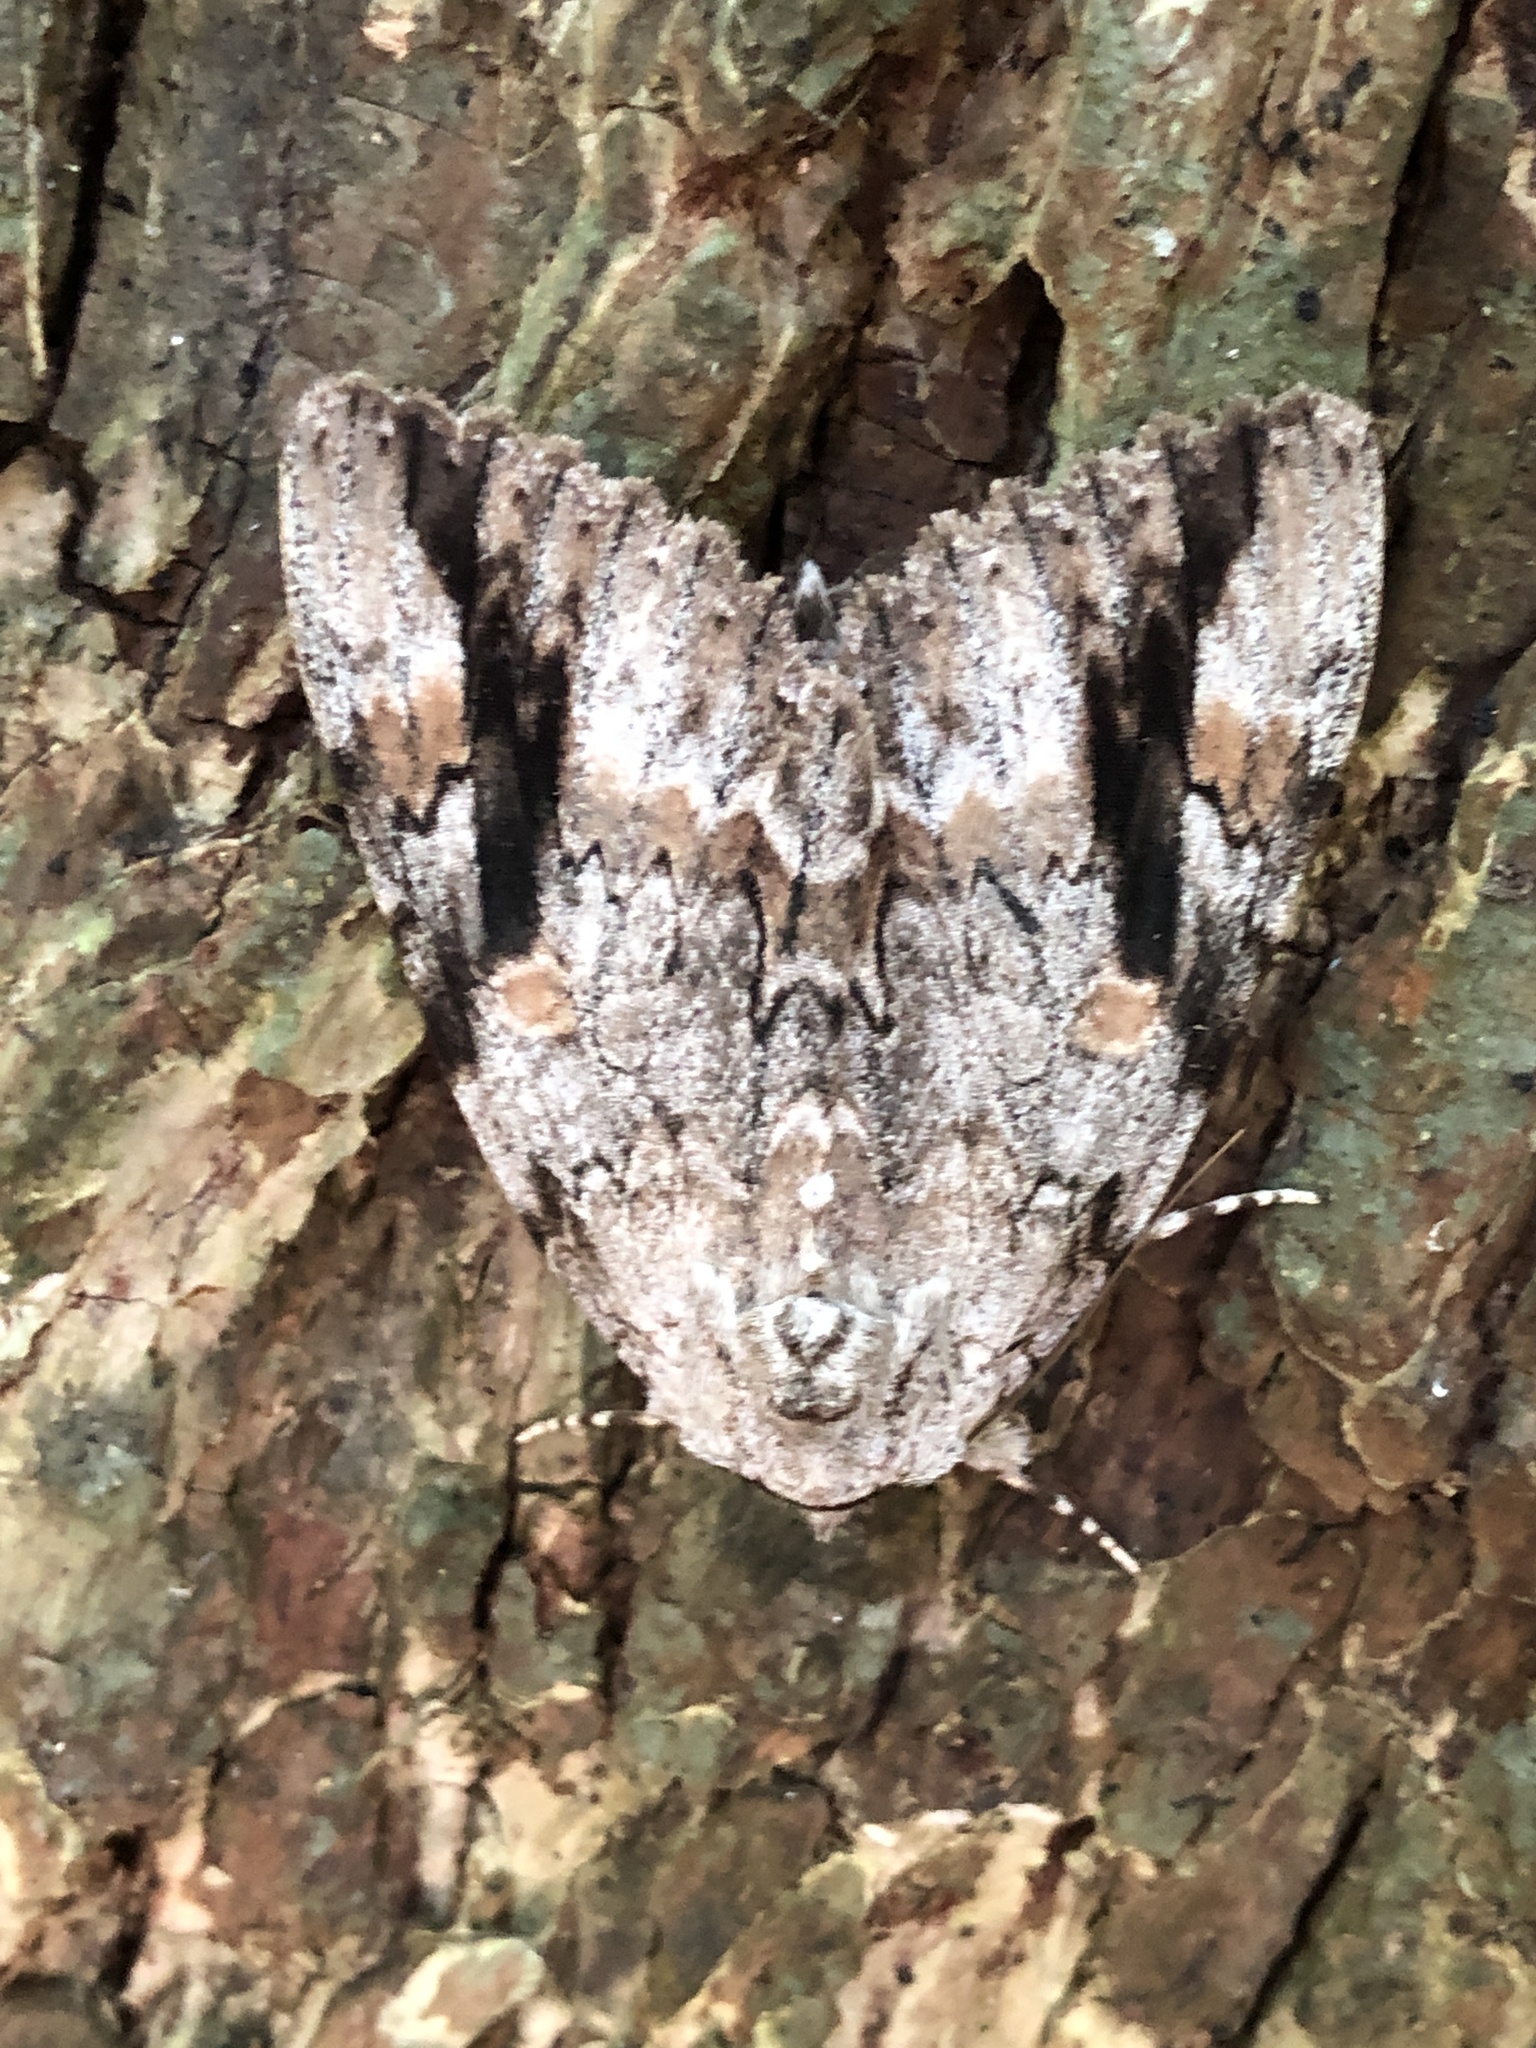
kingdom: Animalia
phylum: Arthropoda
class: Insecta
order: Lepidoptera
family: Erebidae
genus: Catocala
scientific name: Catocala maestosa
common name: Sad underwing
